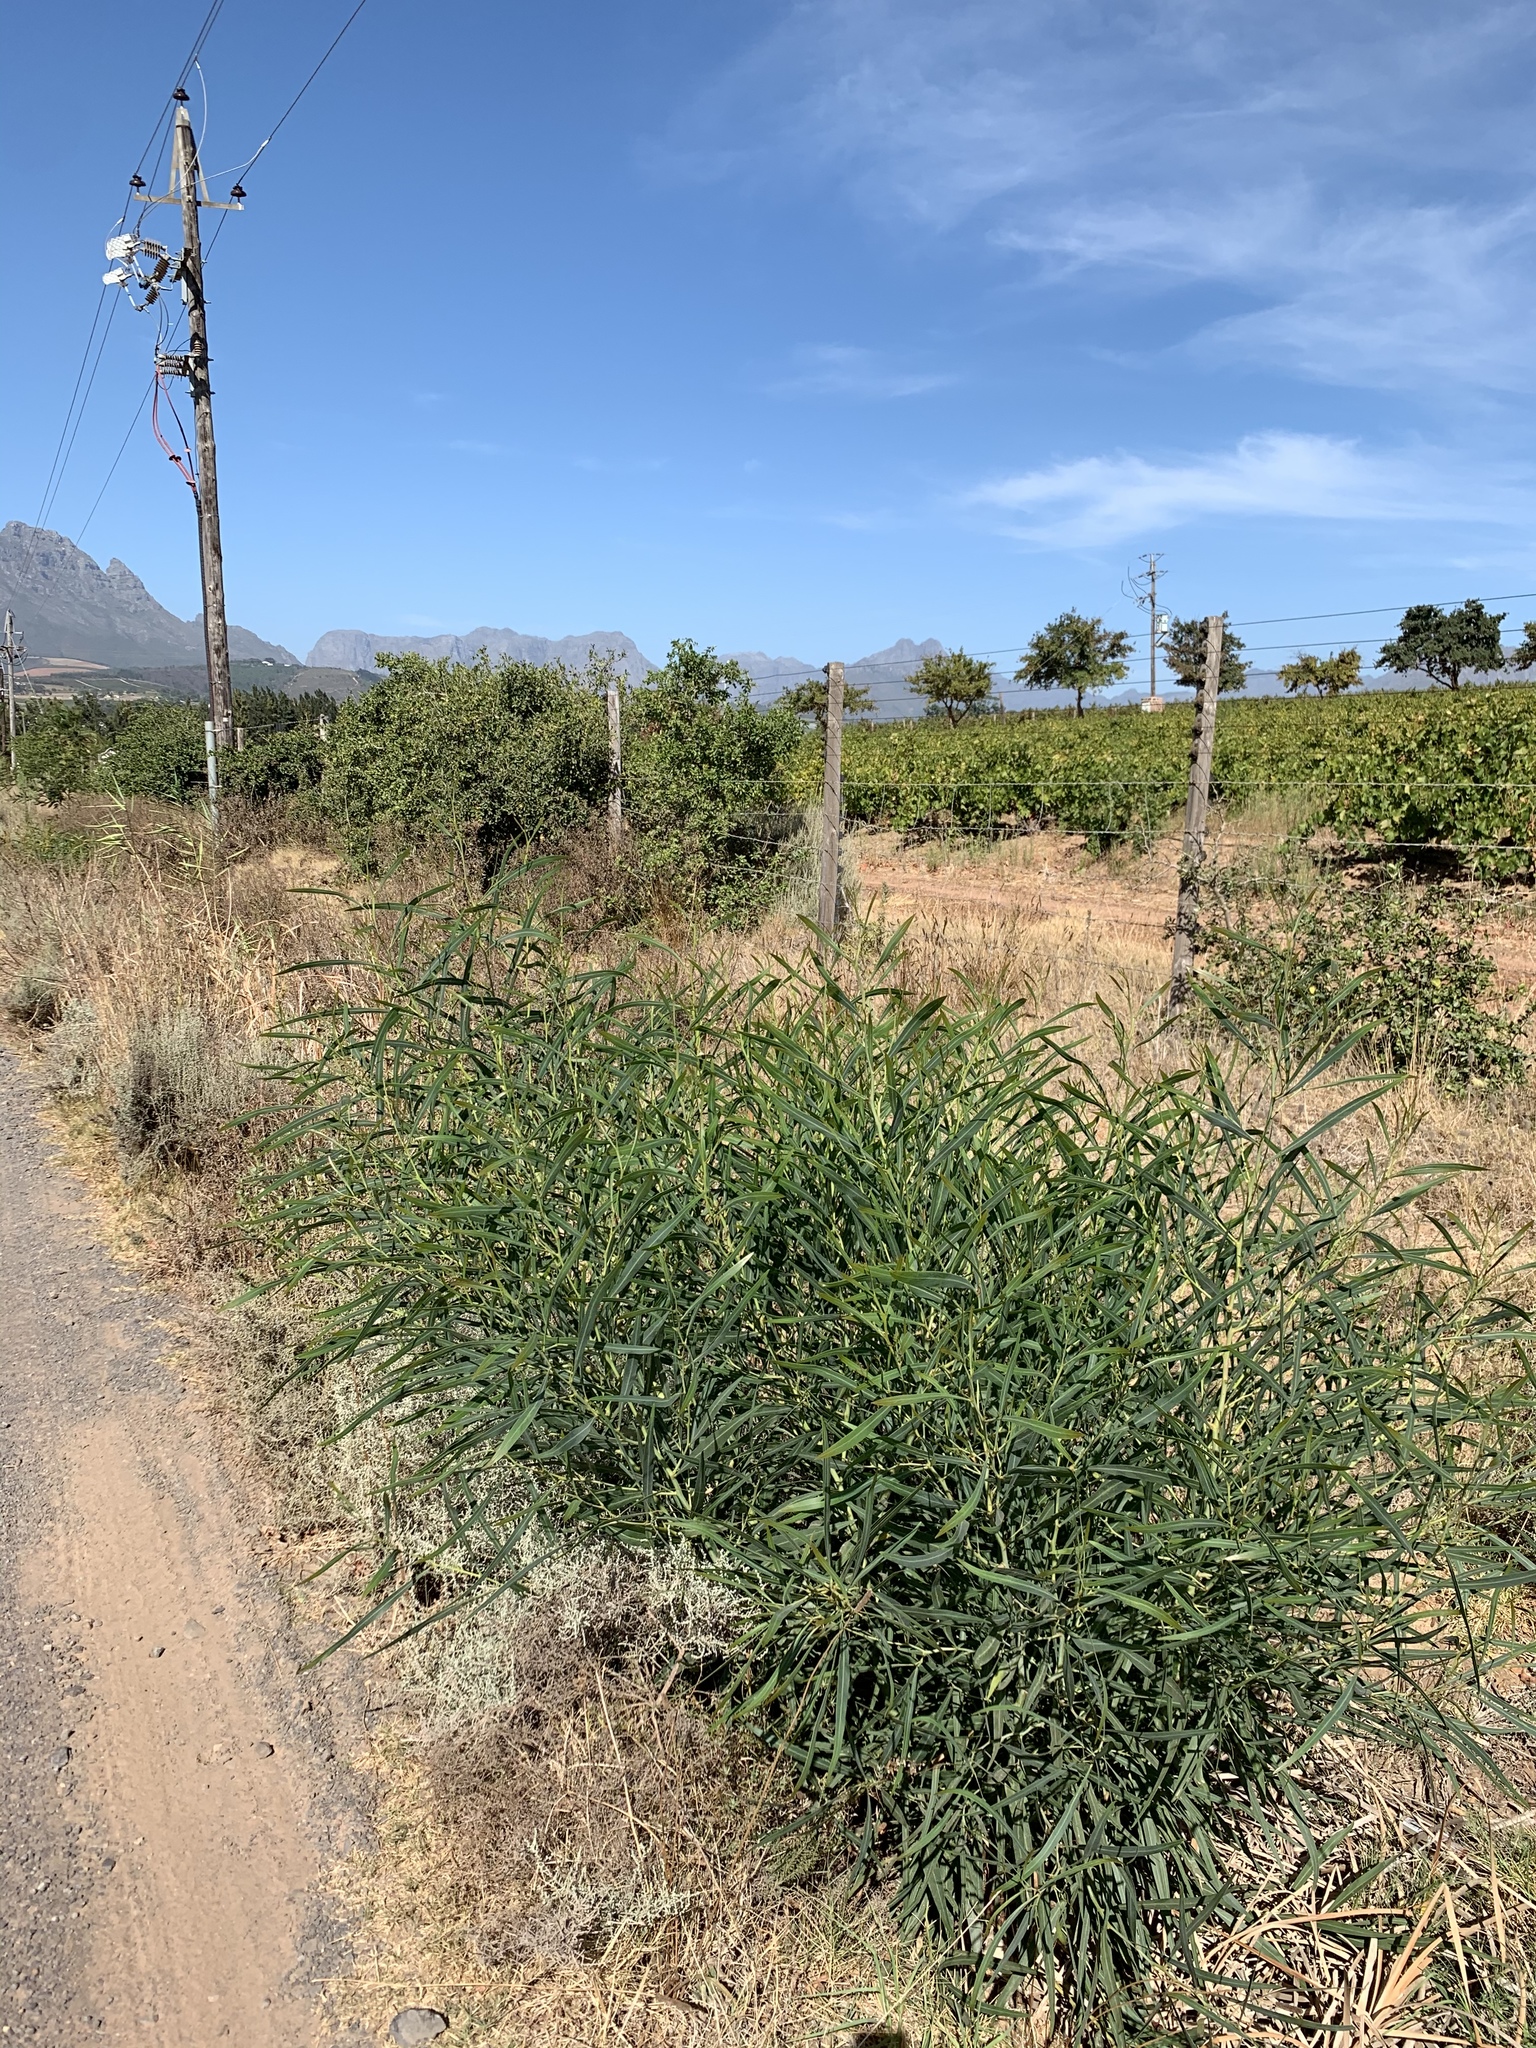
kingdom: Plantae
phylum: Tracheophyta
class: Magnoliopsida
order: Fabales
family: Fabaceae
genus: Acacia
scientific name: Acacia saligna
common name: Orange wattle
